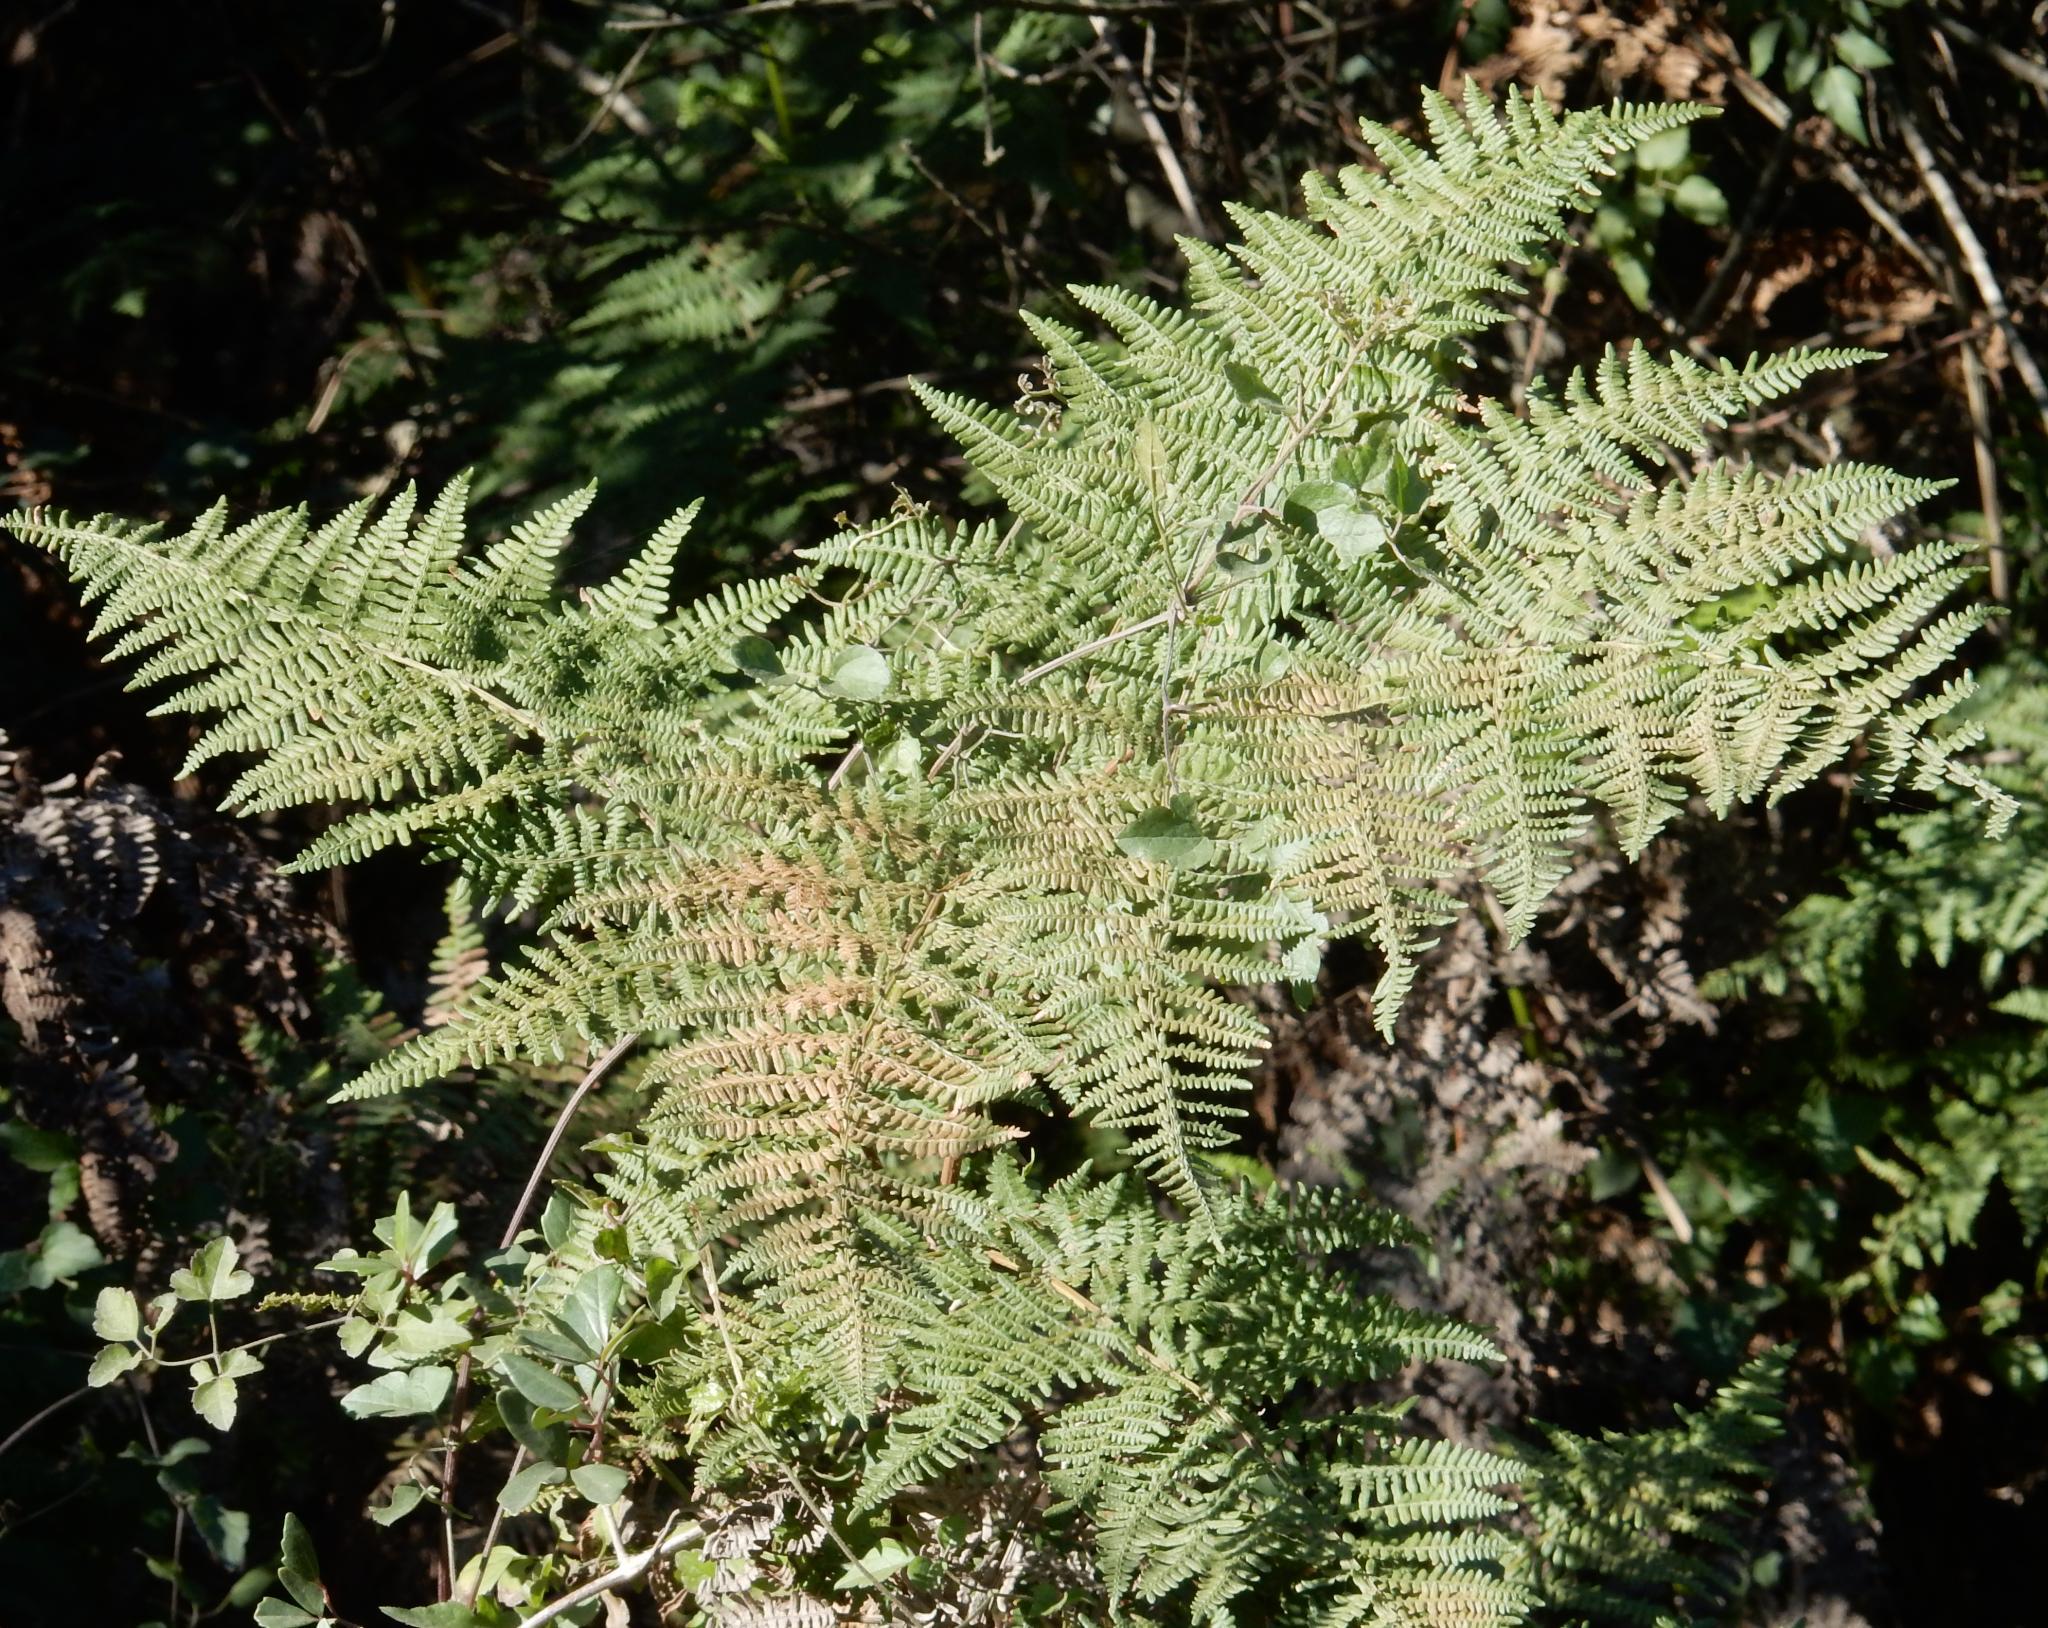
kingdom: Plantae
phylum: Tracheophyta
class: Polypodiopsida
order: Polypodiales
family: Dennstaedtiaceae
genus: Pteridium
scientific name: Pteridium aquilinum
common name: Bracken
